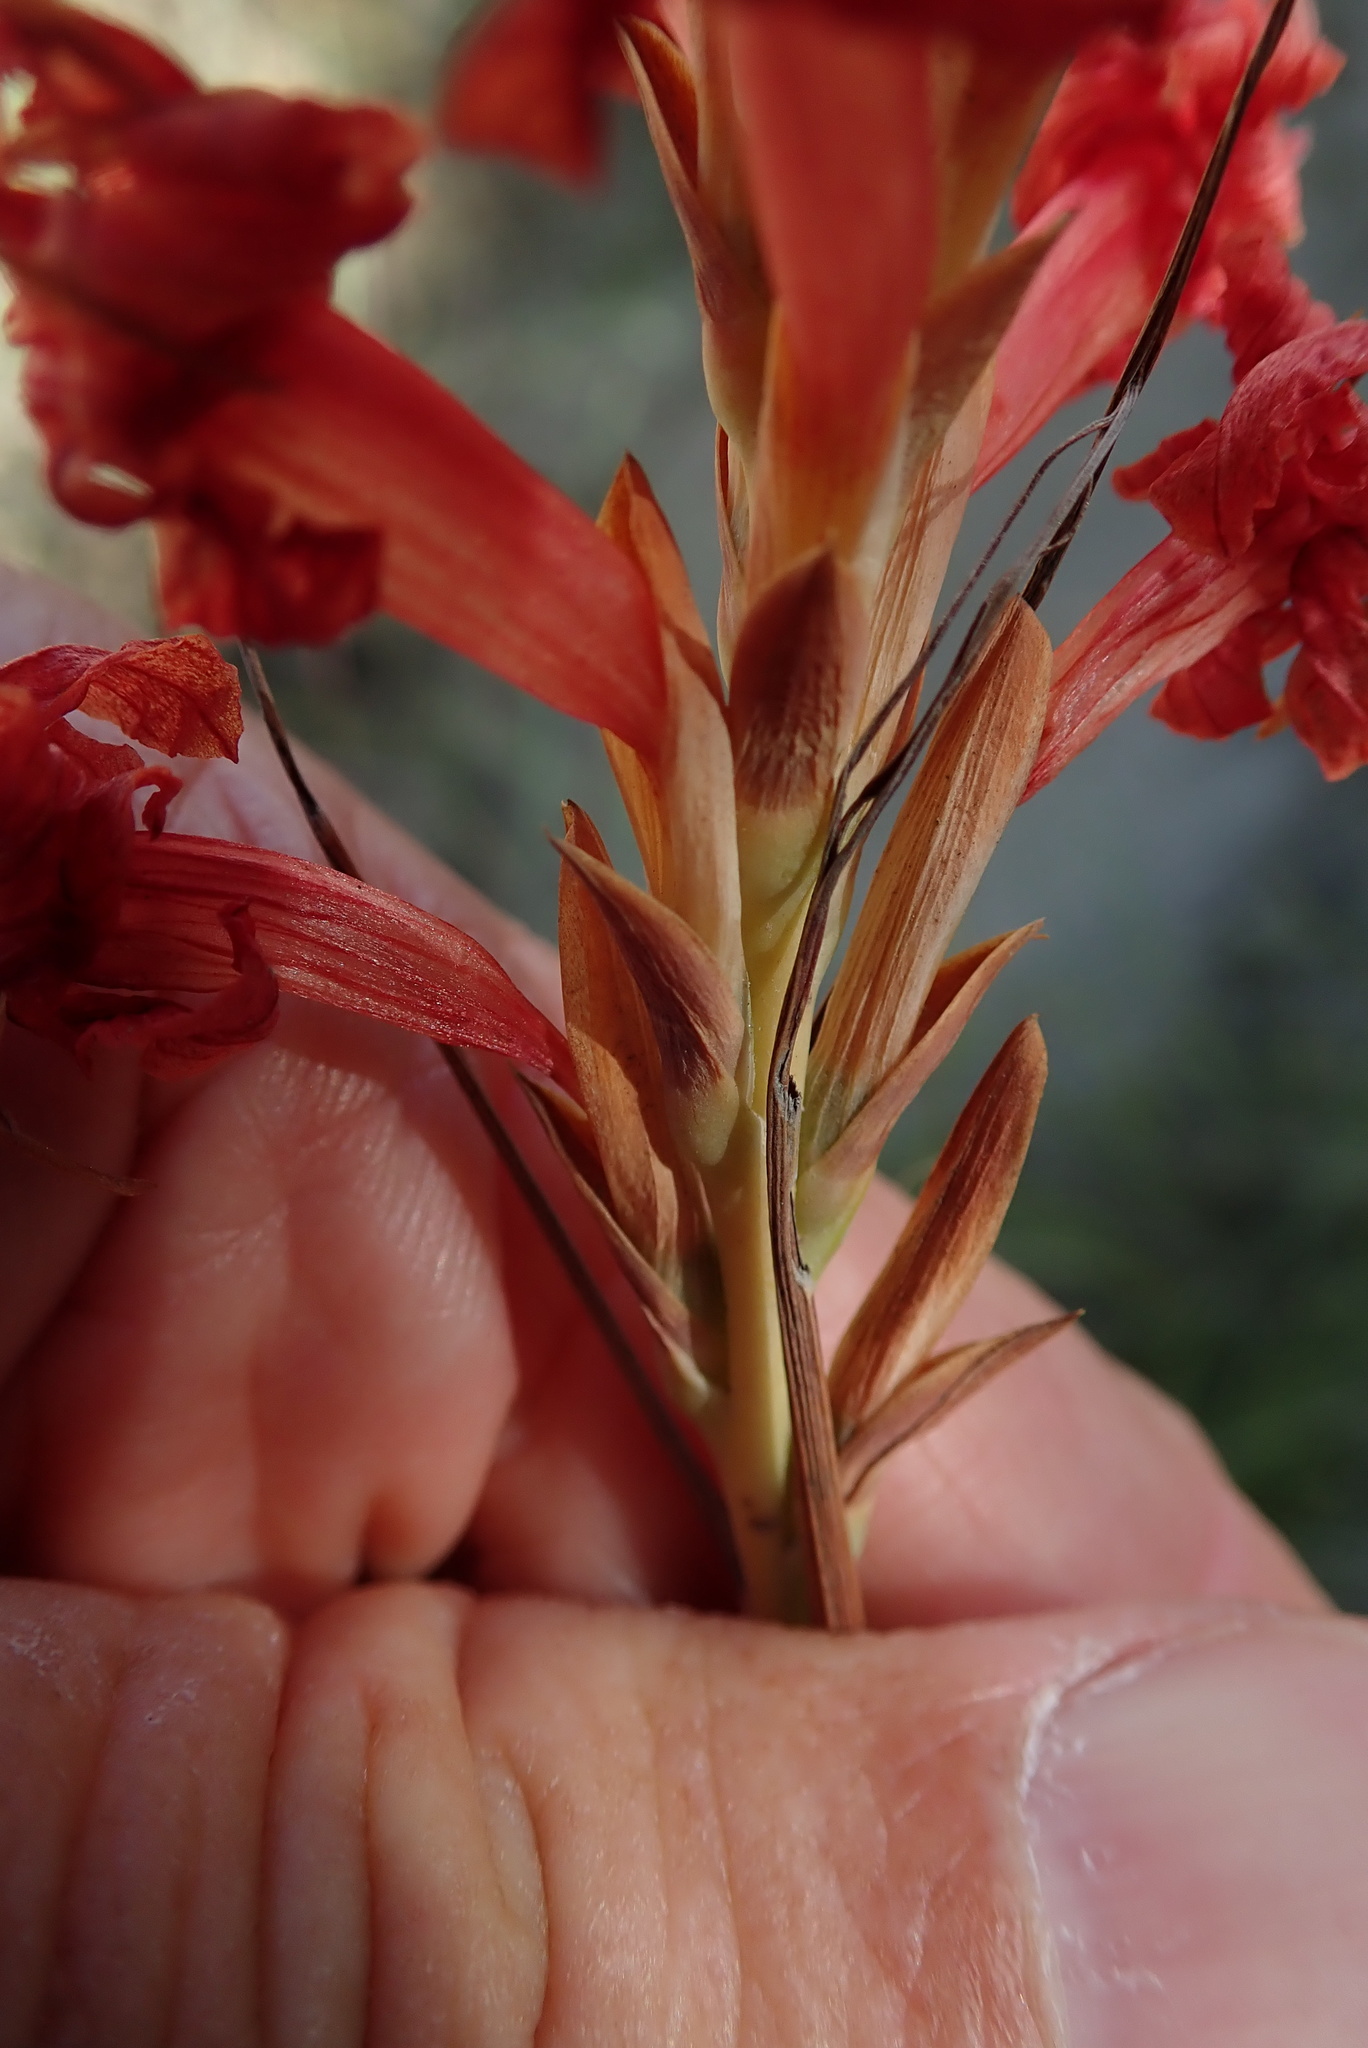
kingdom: Plantae
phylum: Tracheophyta
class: Liliopsida
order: Asparagales
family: Iridaceae
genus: Tritoniopsis
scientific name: Tritoniopsis antholyza
